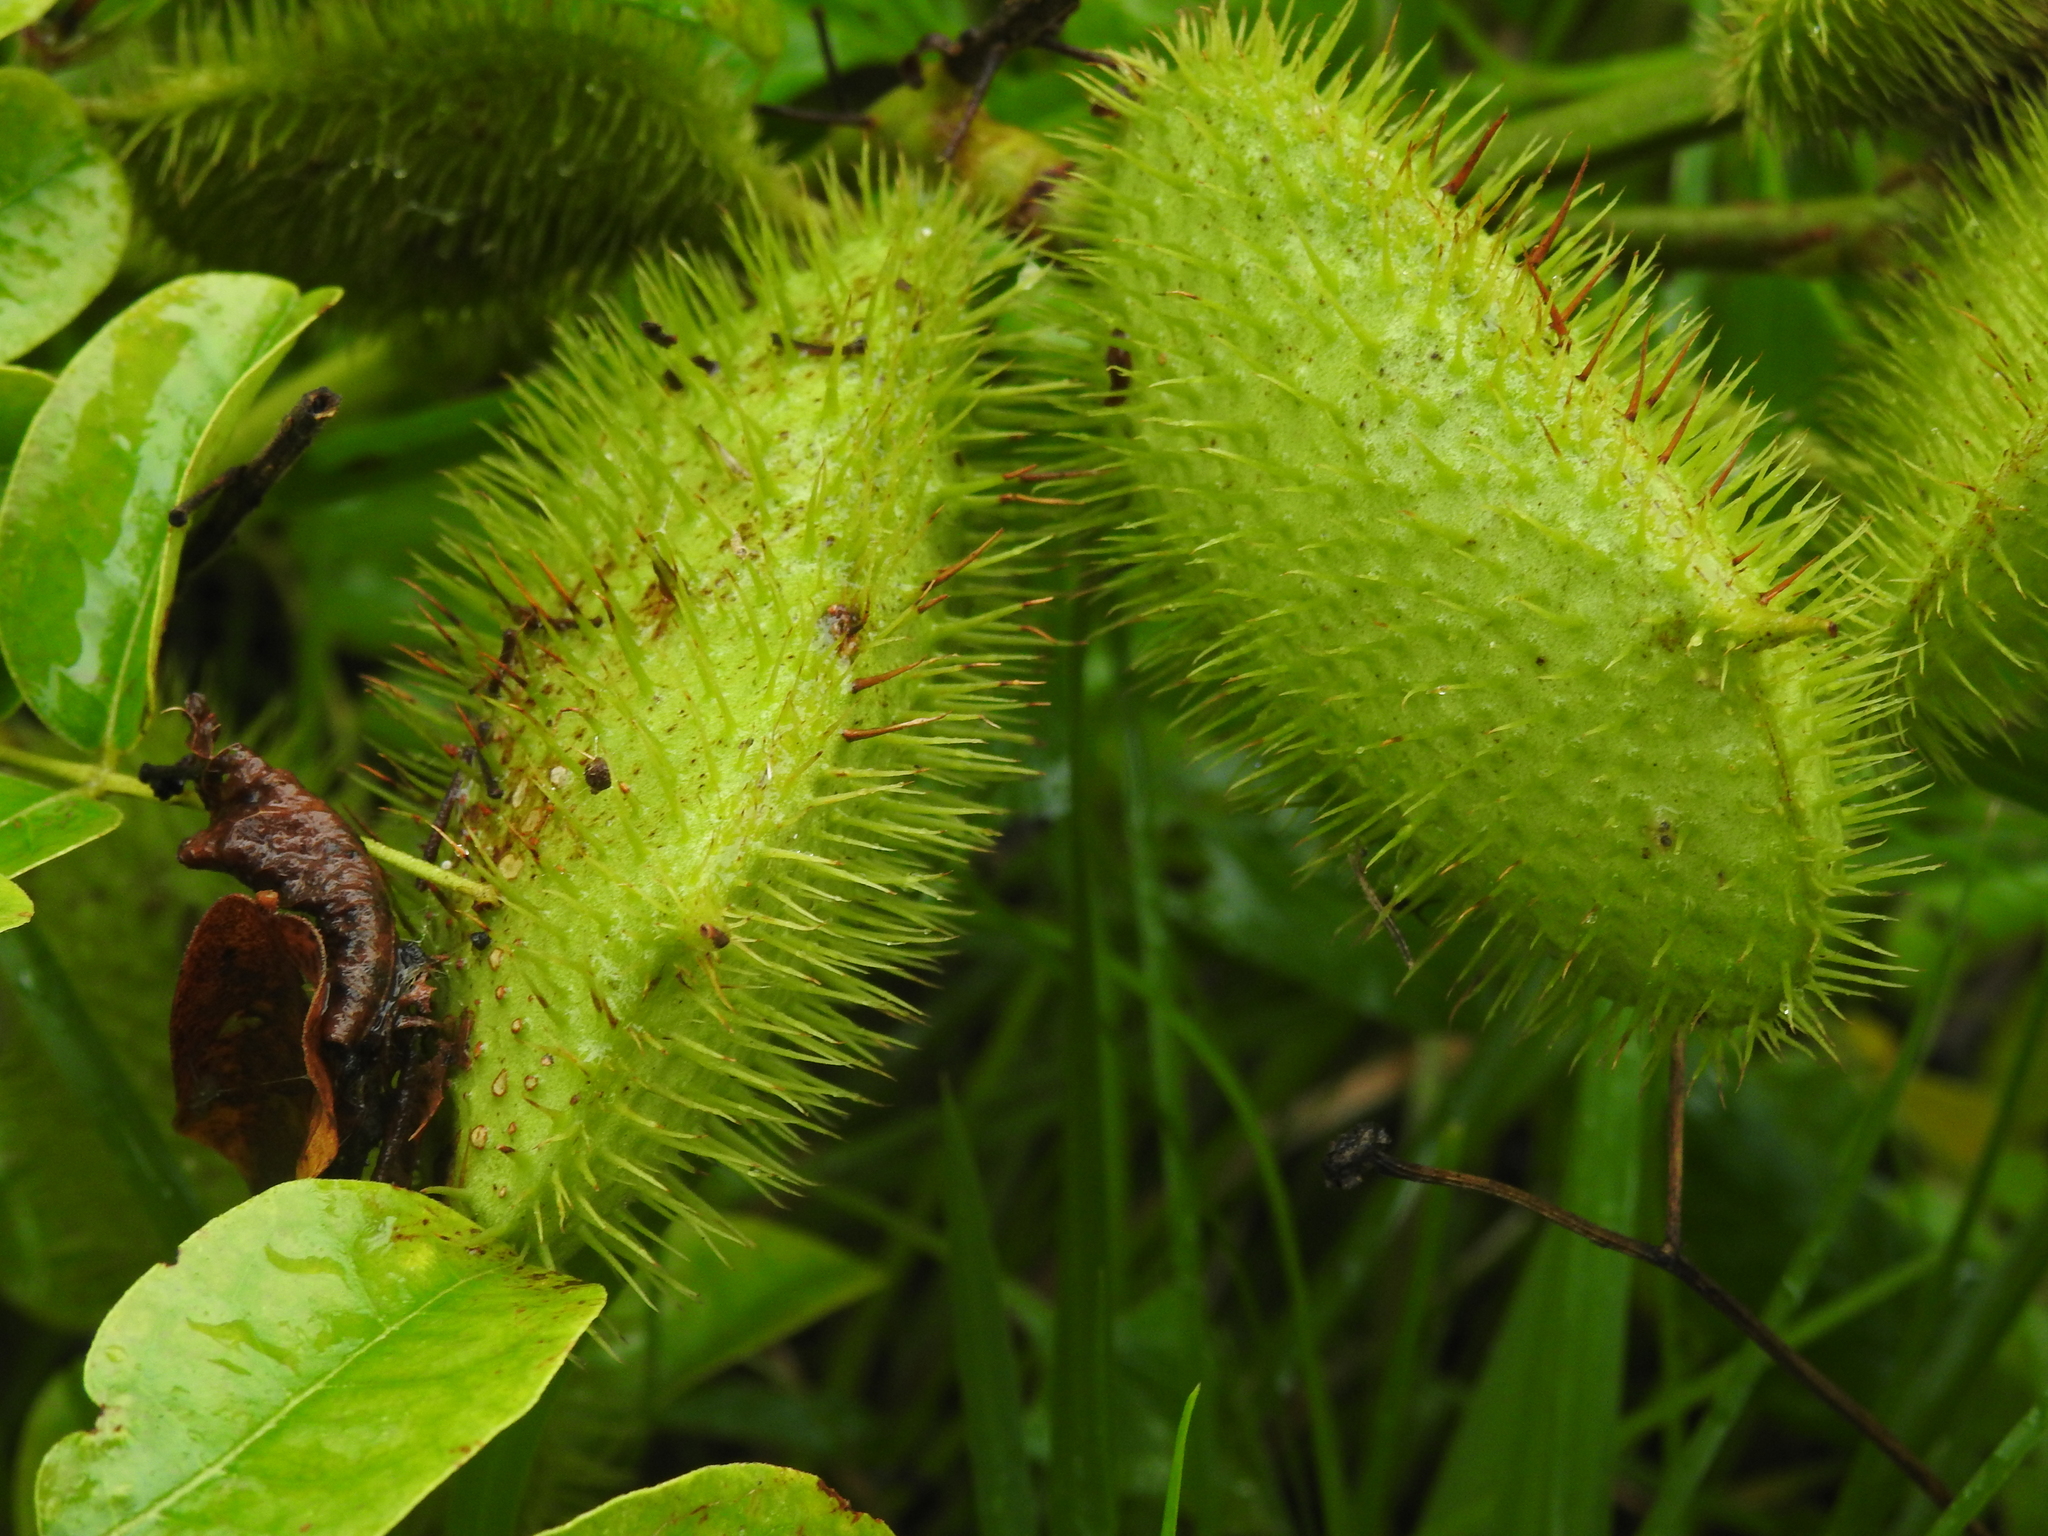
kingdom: Plantae
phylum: Tracheophyta
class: Magnoliopsida
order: Fabales
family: Fabaceae
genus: Guilandina
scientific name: Guilandina bonduc
